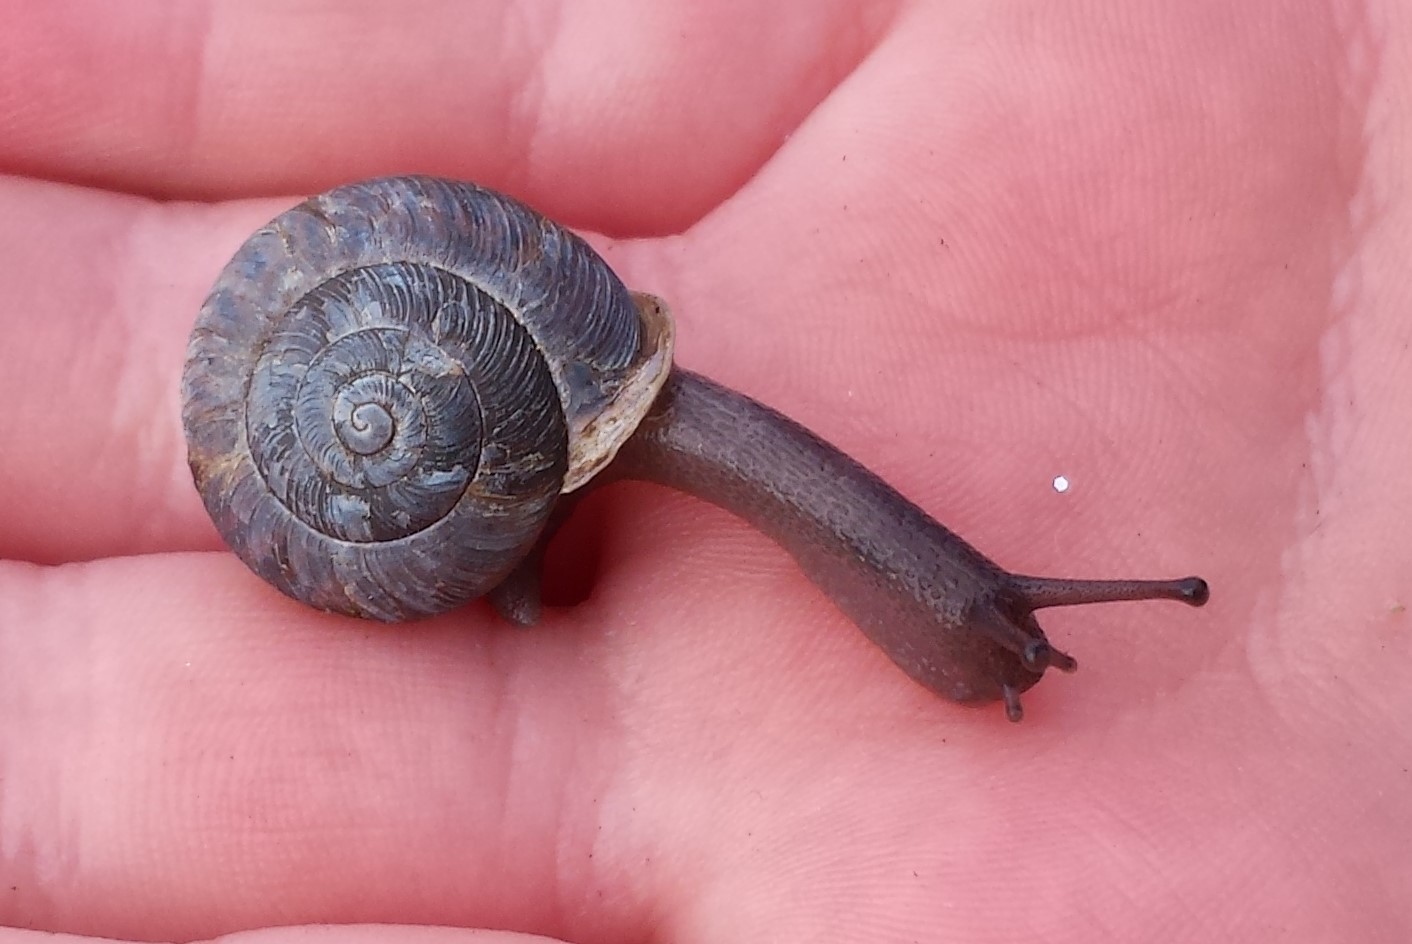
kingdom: Animalia
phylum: Mollusca
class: Gastropoda
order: Stylommatophora
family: Polygyridae
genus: Triodopsis
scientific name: Triodopsis hopetonensis
